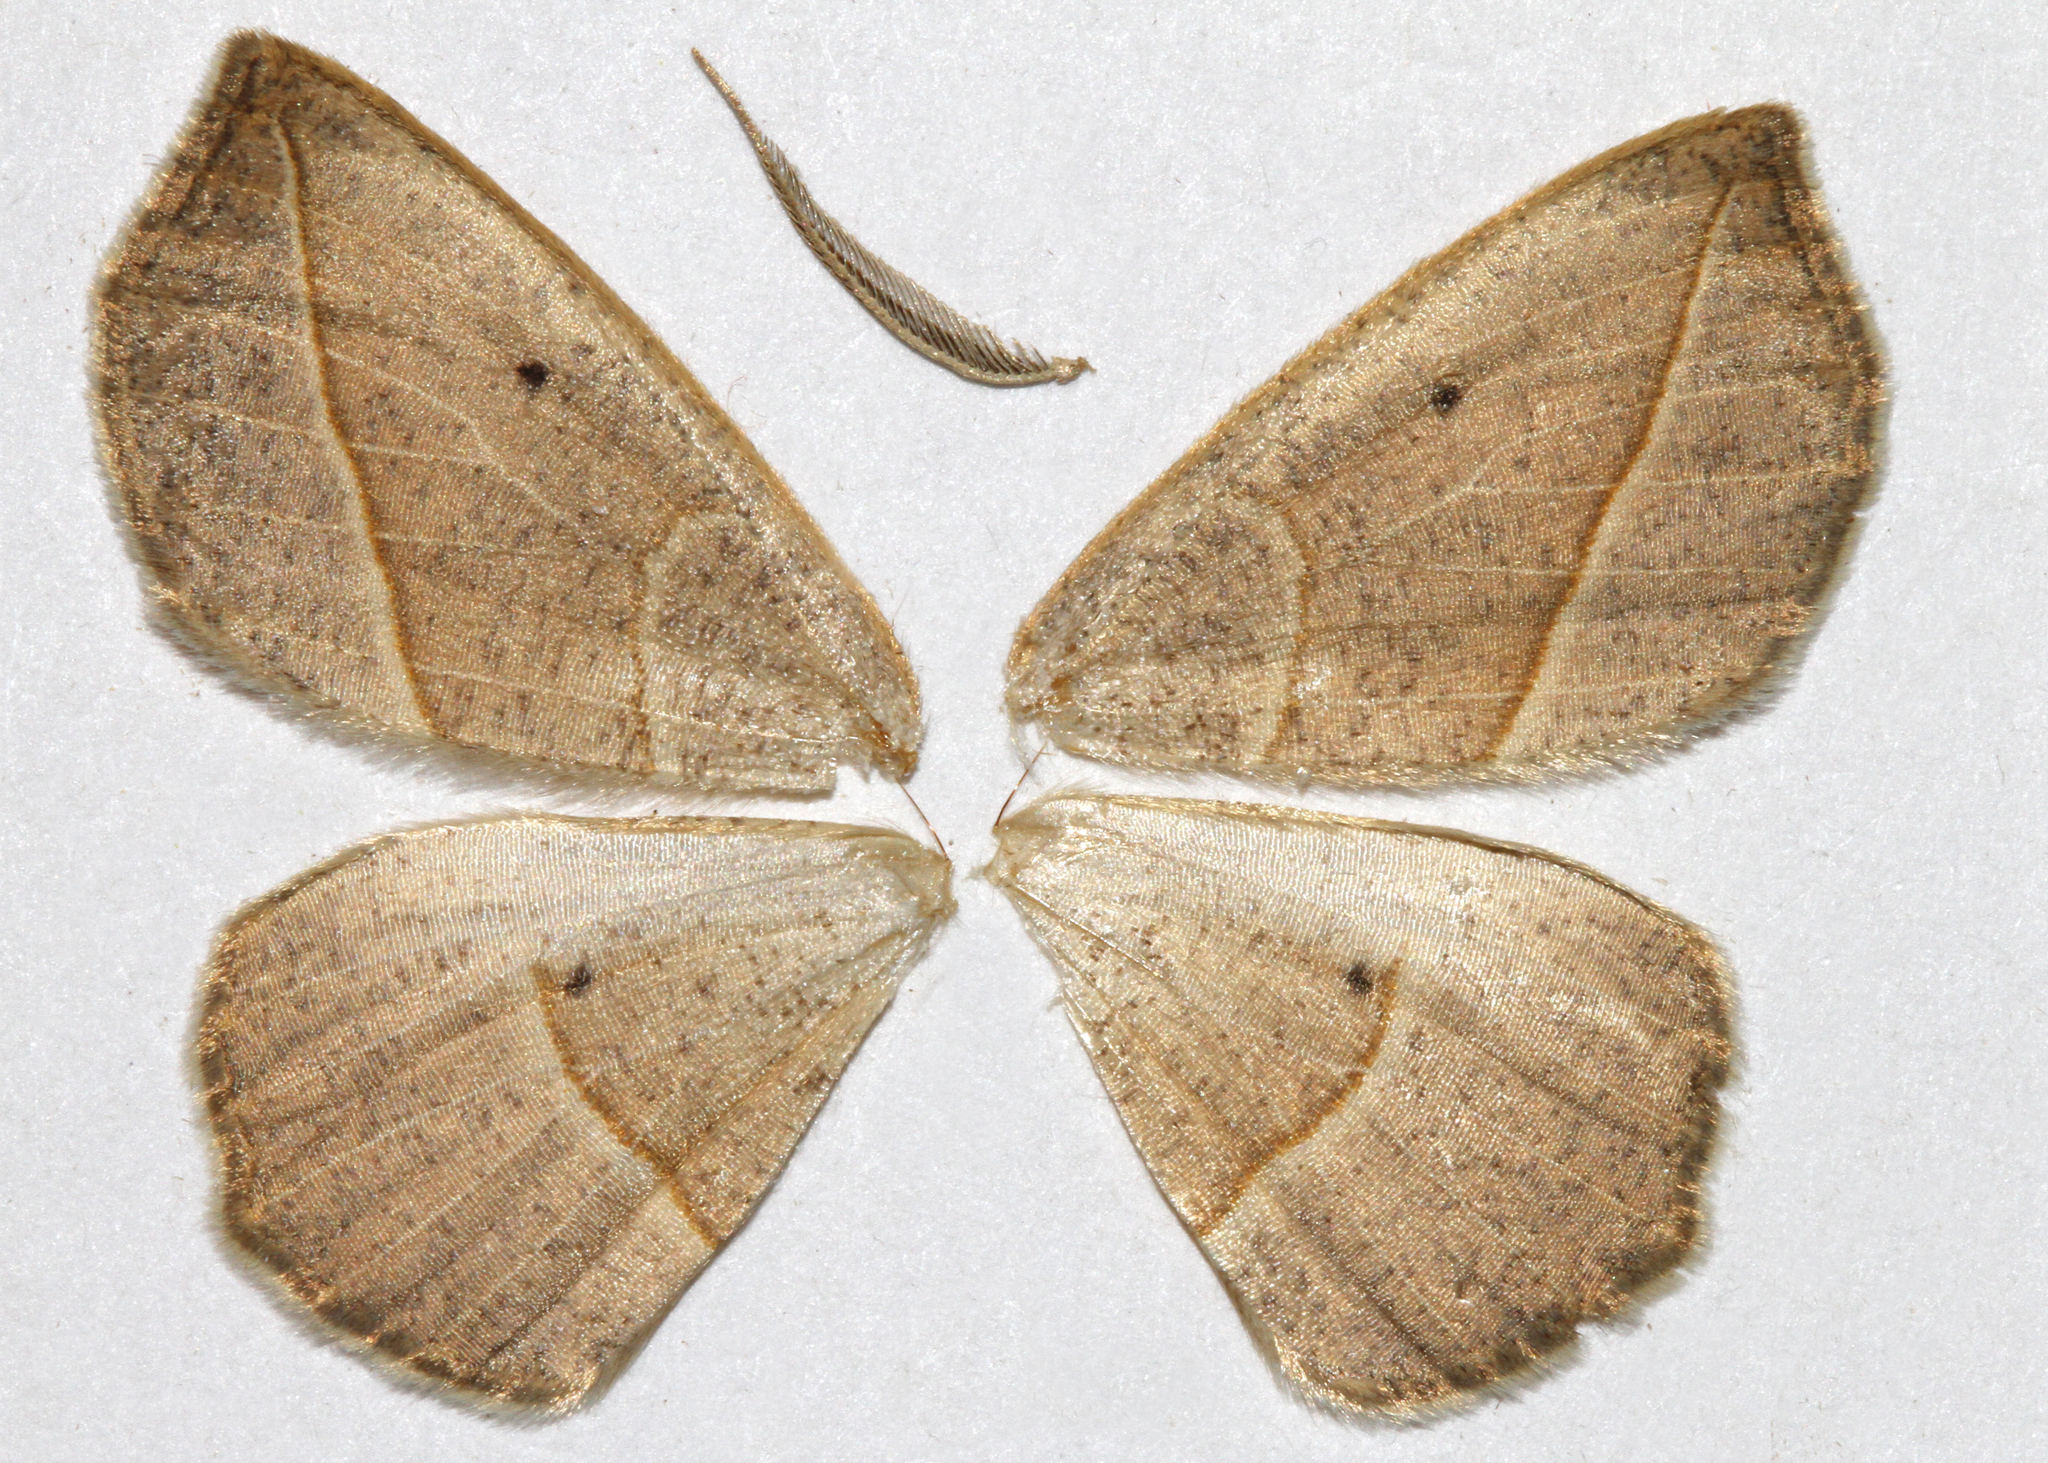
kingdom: Animalia
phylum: Arthropoda
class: Insecta
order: Lepidoptera
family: Geometridae
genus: Eusarca
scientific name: Eusarca confusaria
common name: Confused eusarca
